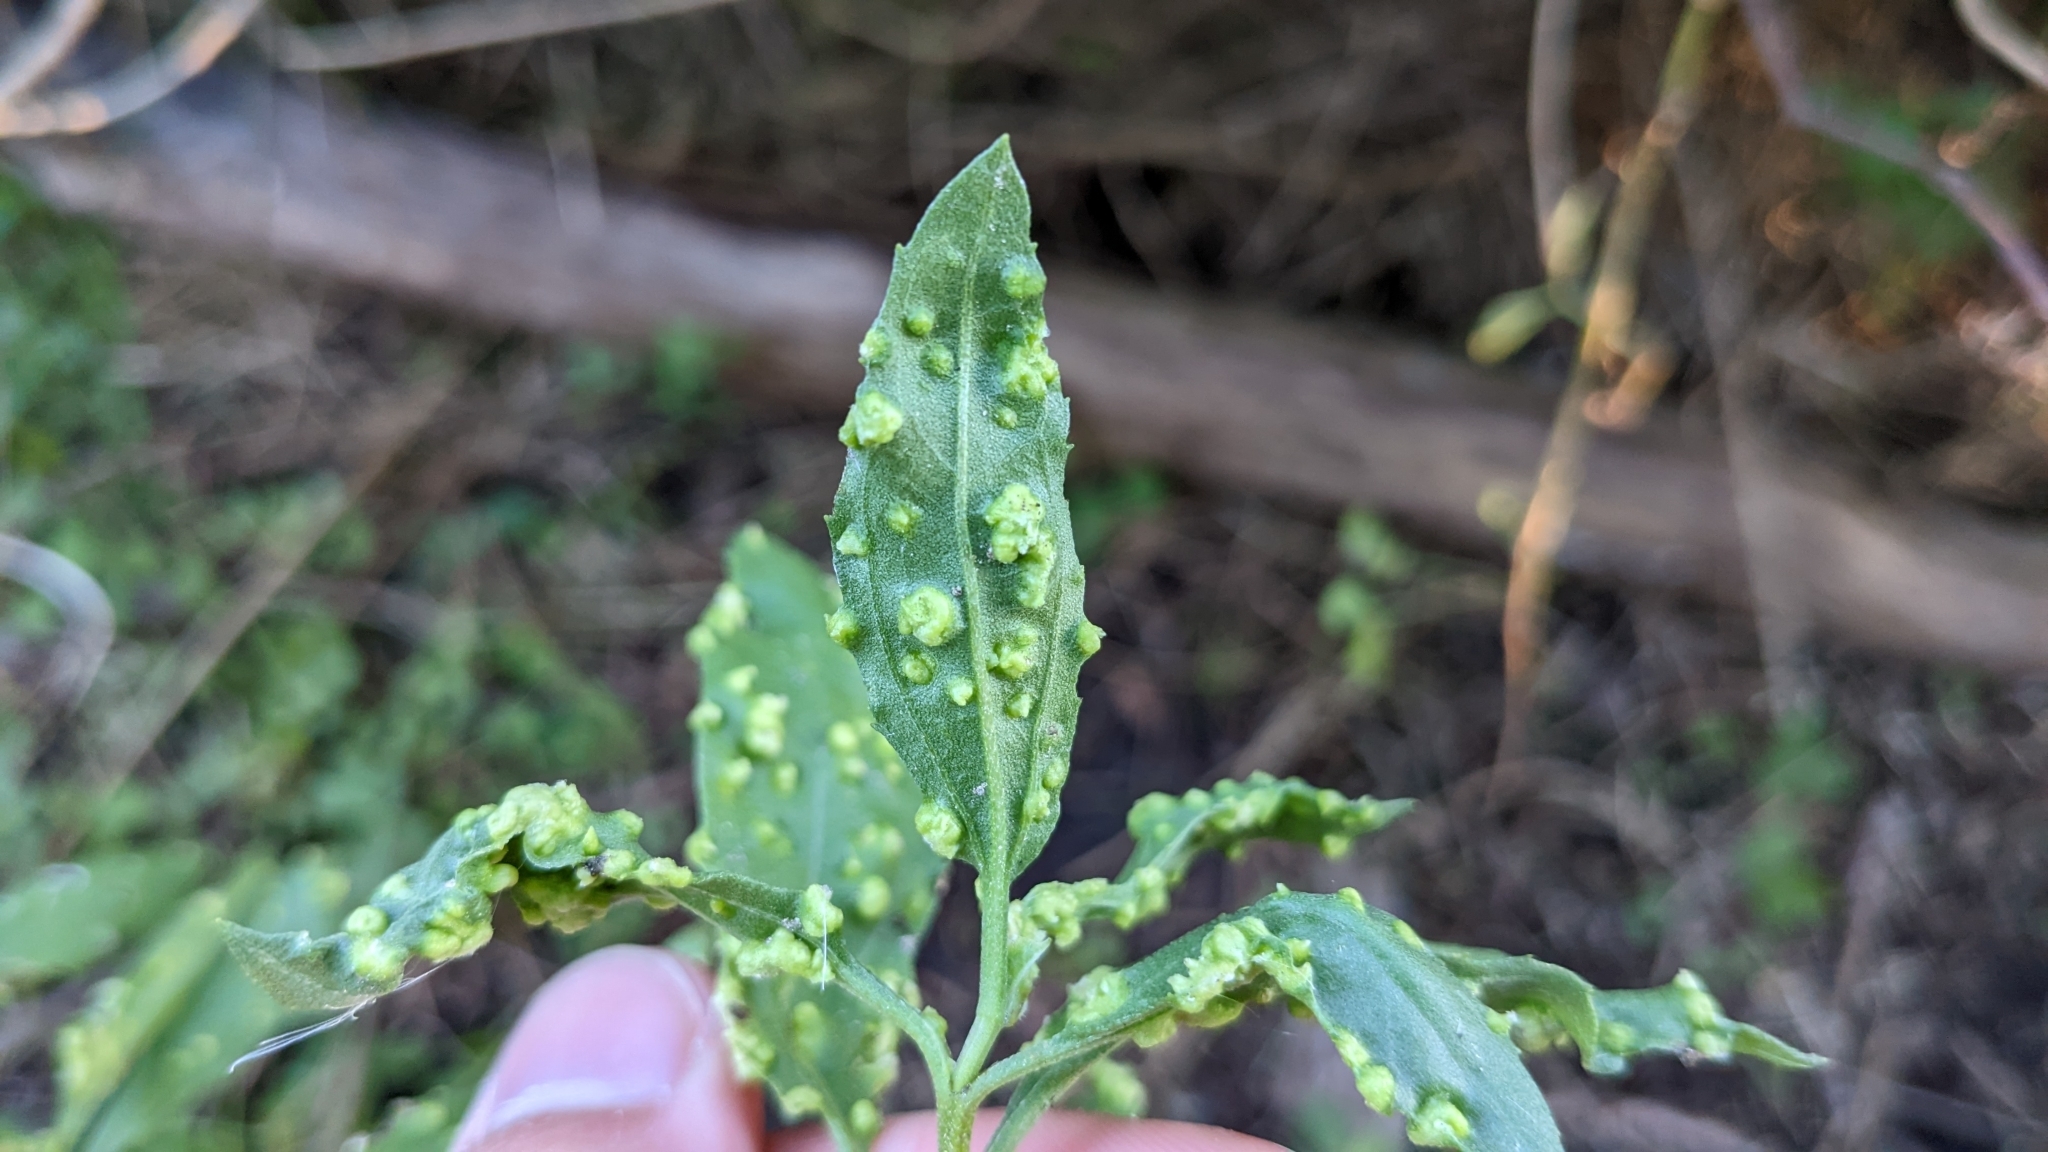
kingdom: Plantae
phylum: Tracheophyta
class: Magnoliopsida
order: Asterales
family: Asteraceae
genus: Iva
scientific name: Iva frutescens
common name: Big-leaved marsh-elder
